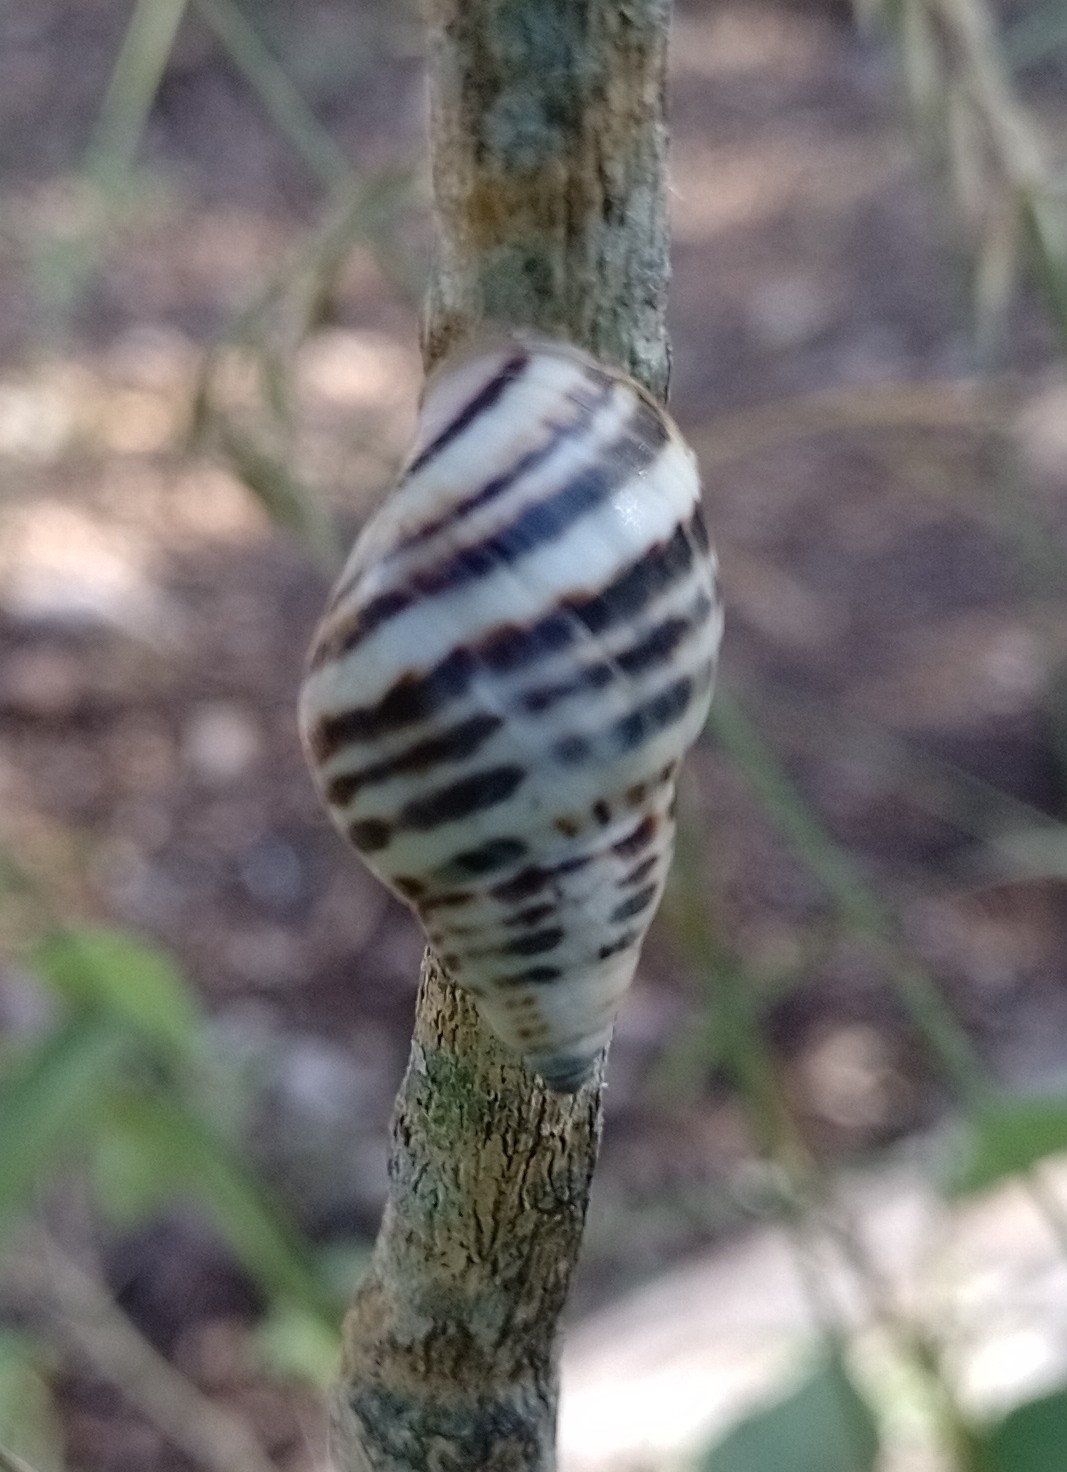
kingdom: Animalia
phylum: Mollusca
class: Gastropoda
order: Stylommatophora
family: Bulimulidae
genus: Drymaeus
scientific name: Drymaeus poecilus
